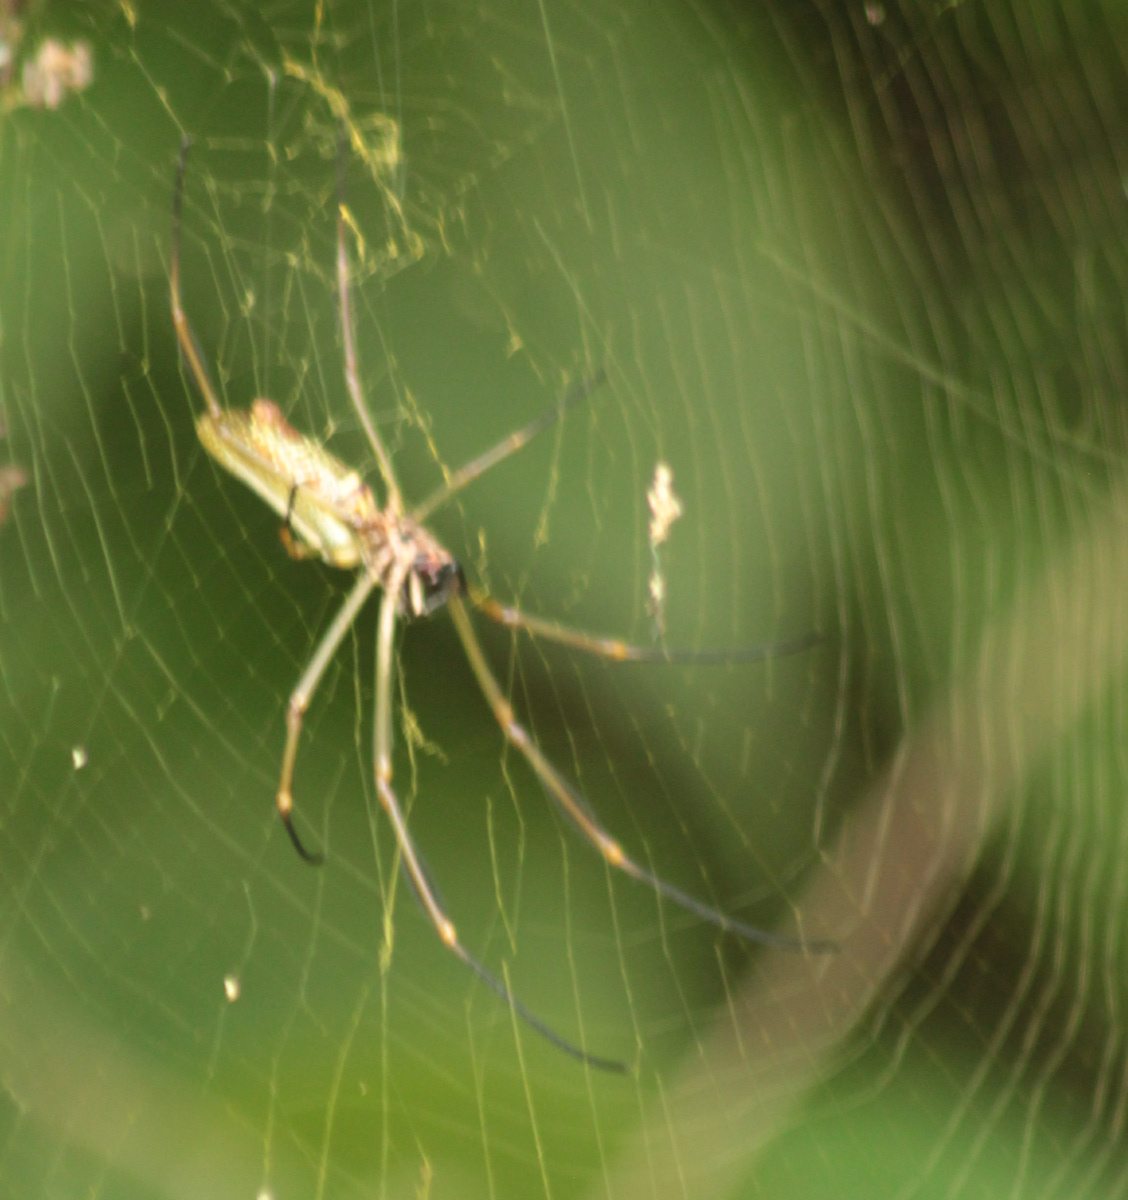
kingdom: Animalia
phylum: Arthropoda
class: Arachnida
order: Araneae
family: Araneidae
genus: Trichonephila
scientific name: Trichonephila clavipes
